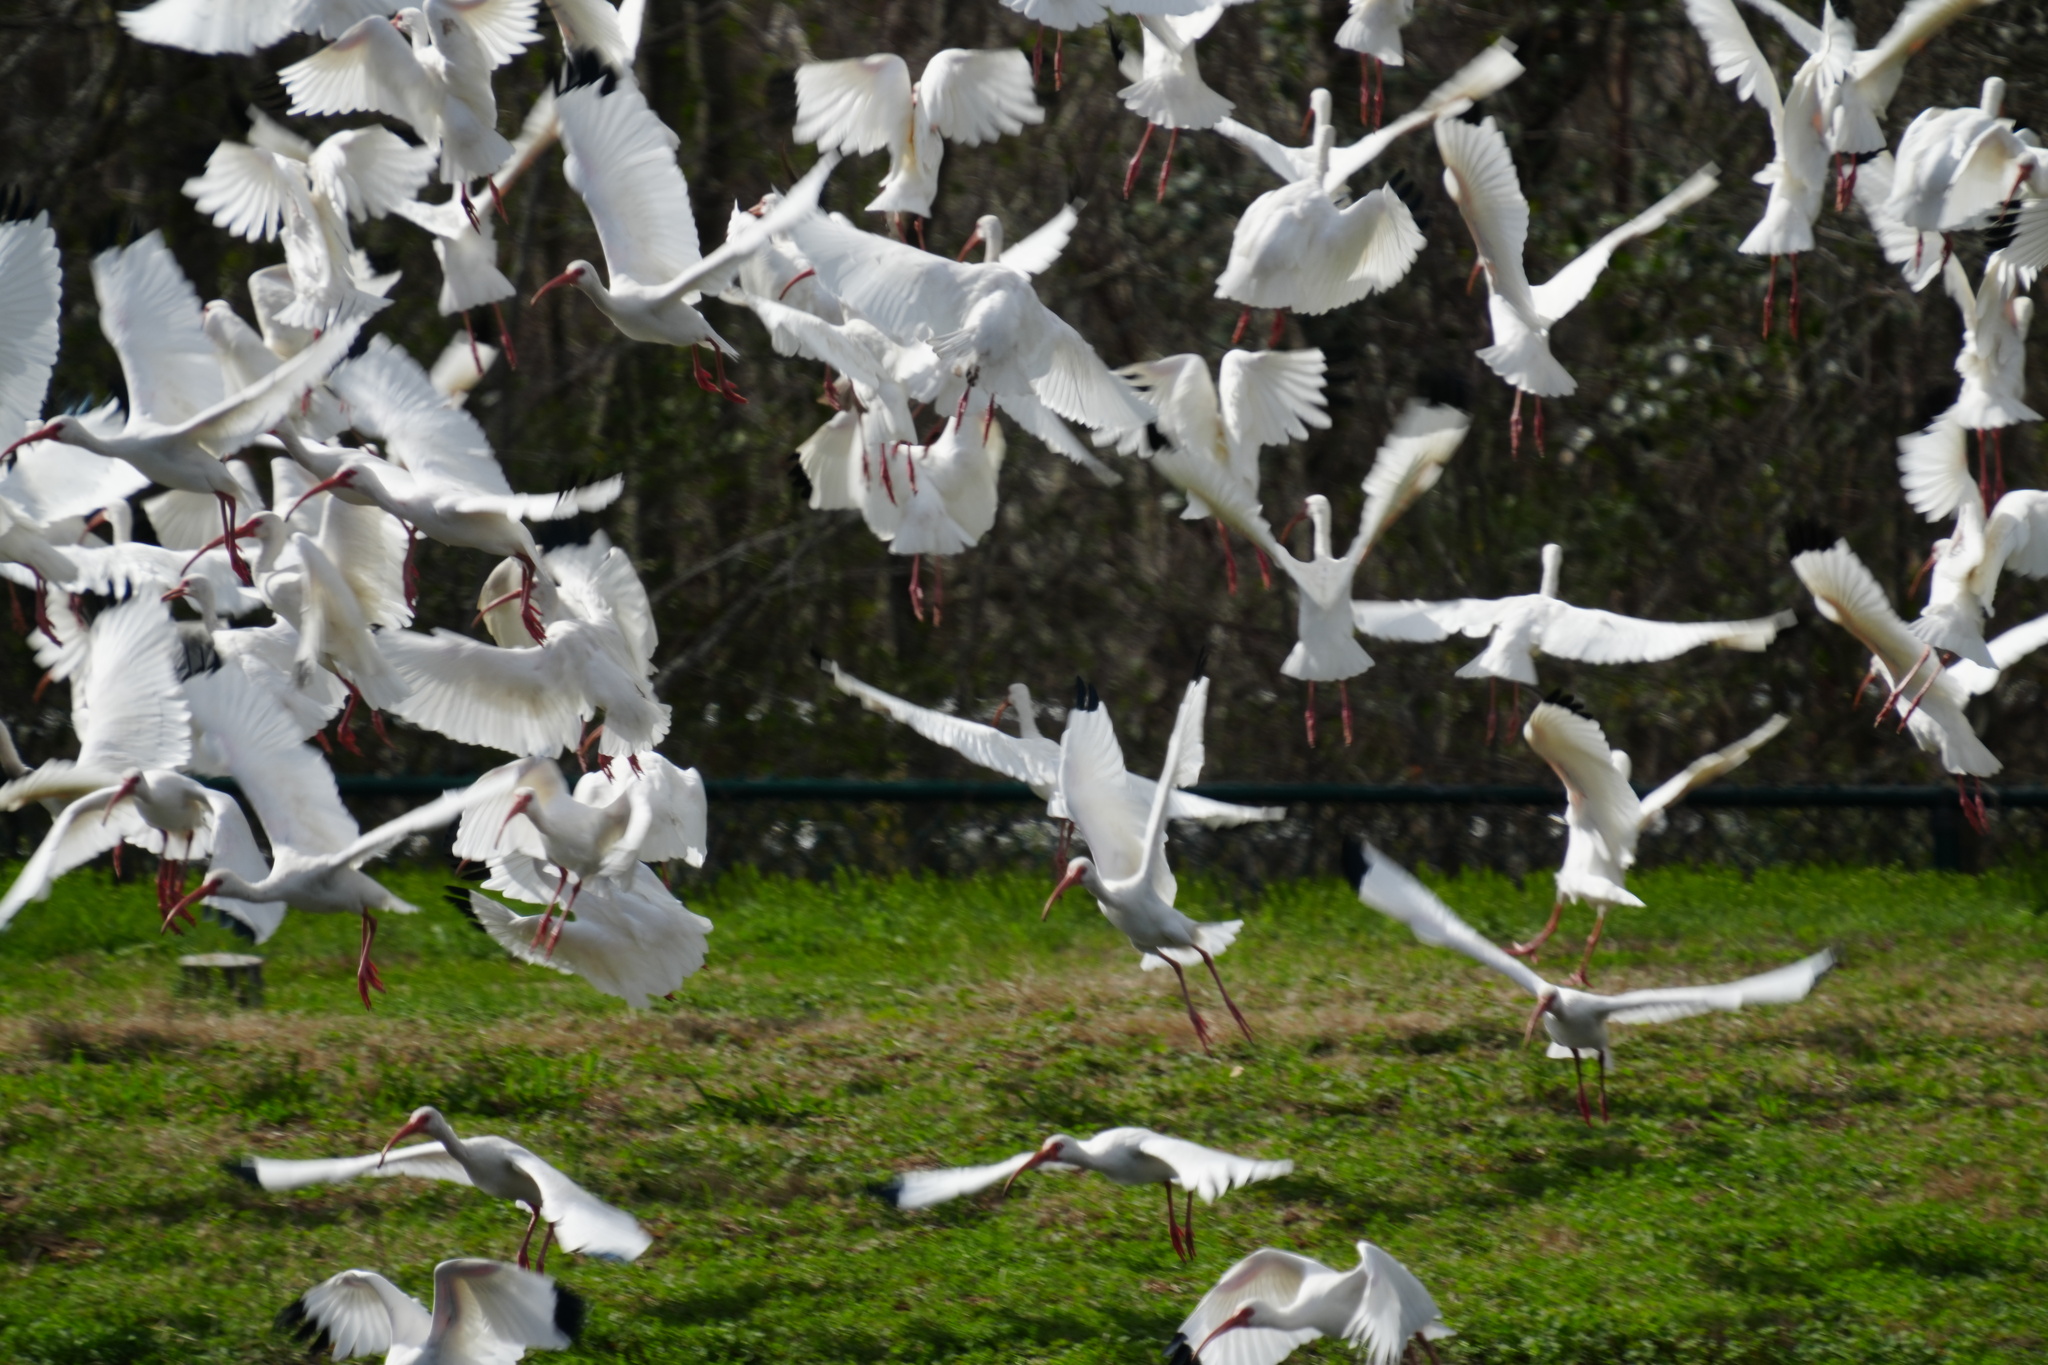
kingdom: Animalia
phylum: Chordata
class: Aves
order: Pelecaniformes
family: Threskiornithidae
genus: Eudocimus
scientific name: Eudocimus albus
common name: White ibis
